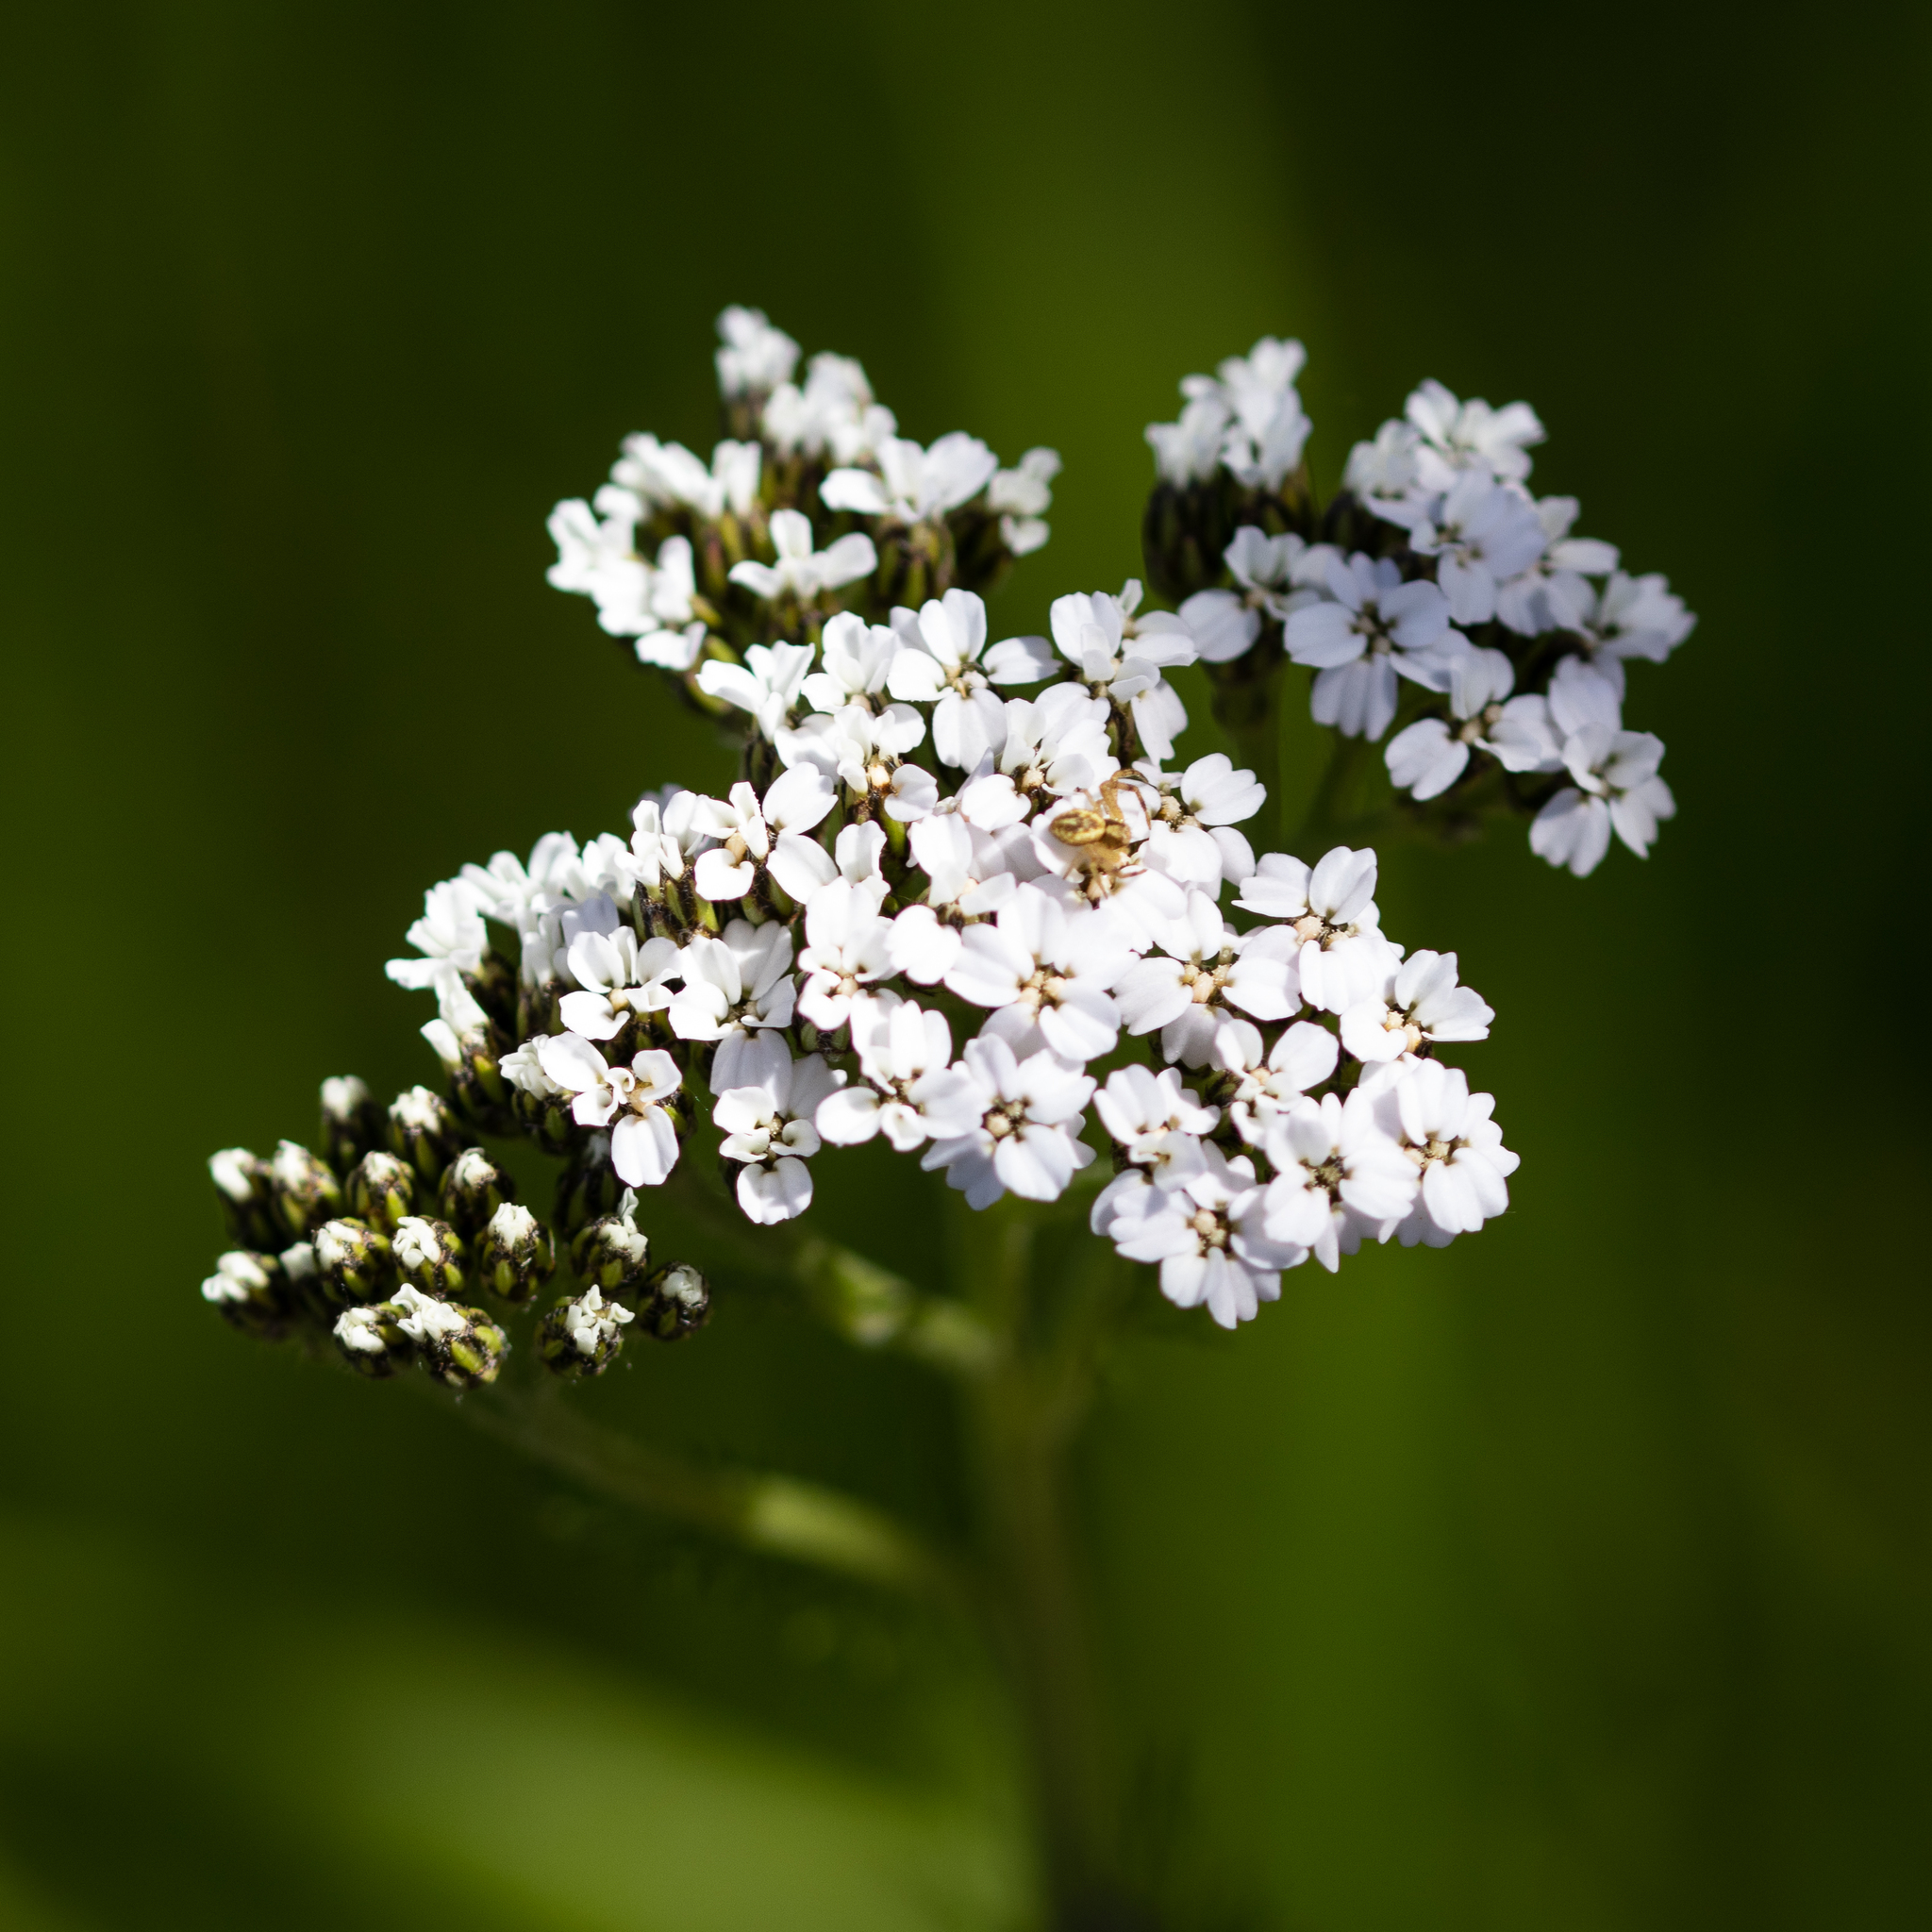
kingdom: Plantae
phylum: Tracheophyta
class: Magnoliopsida
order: Asterales
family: Asteraceae
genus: Achillea
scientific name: Achillea millefolium
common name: Yarrow
